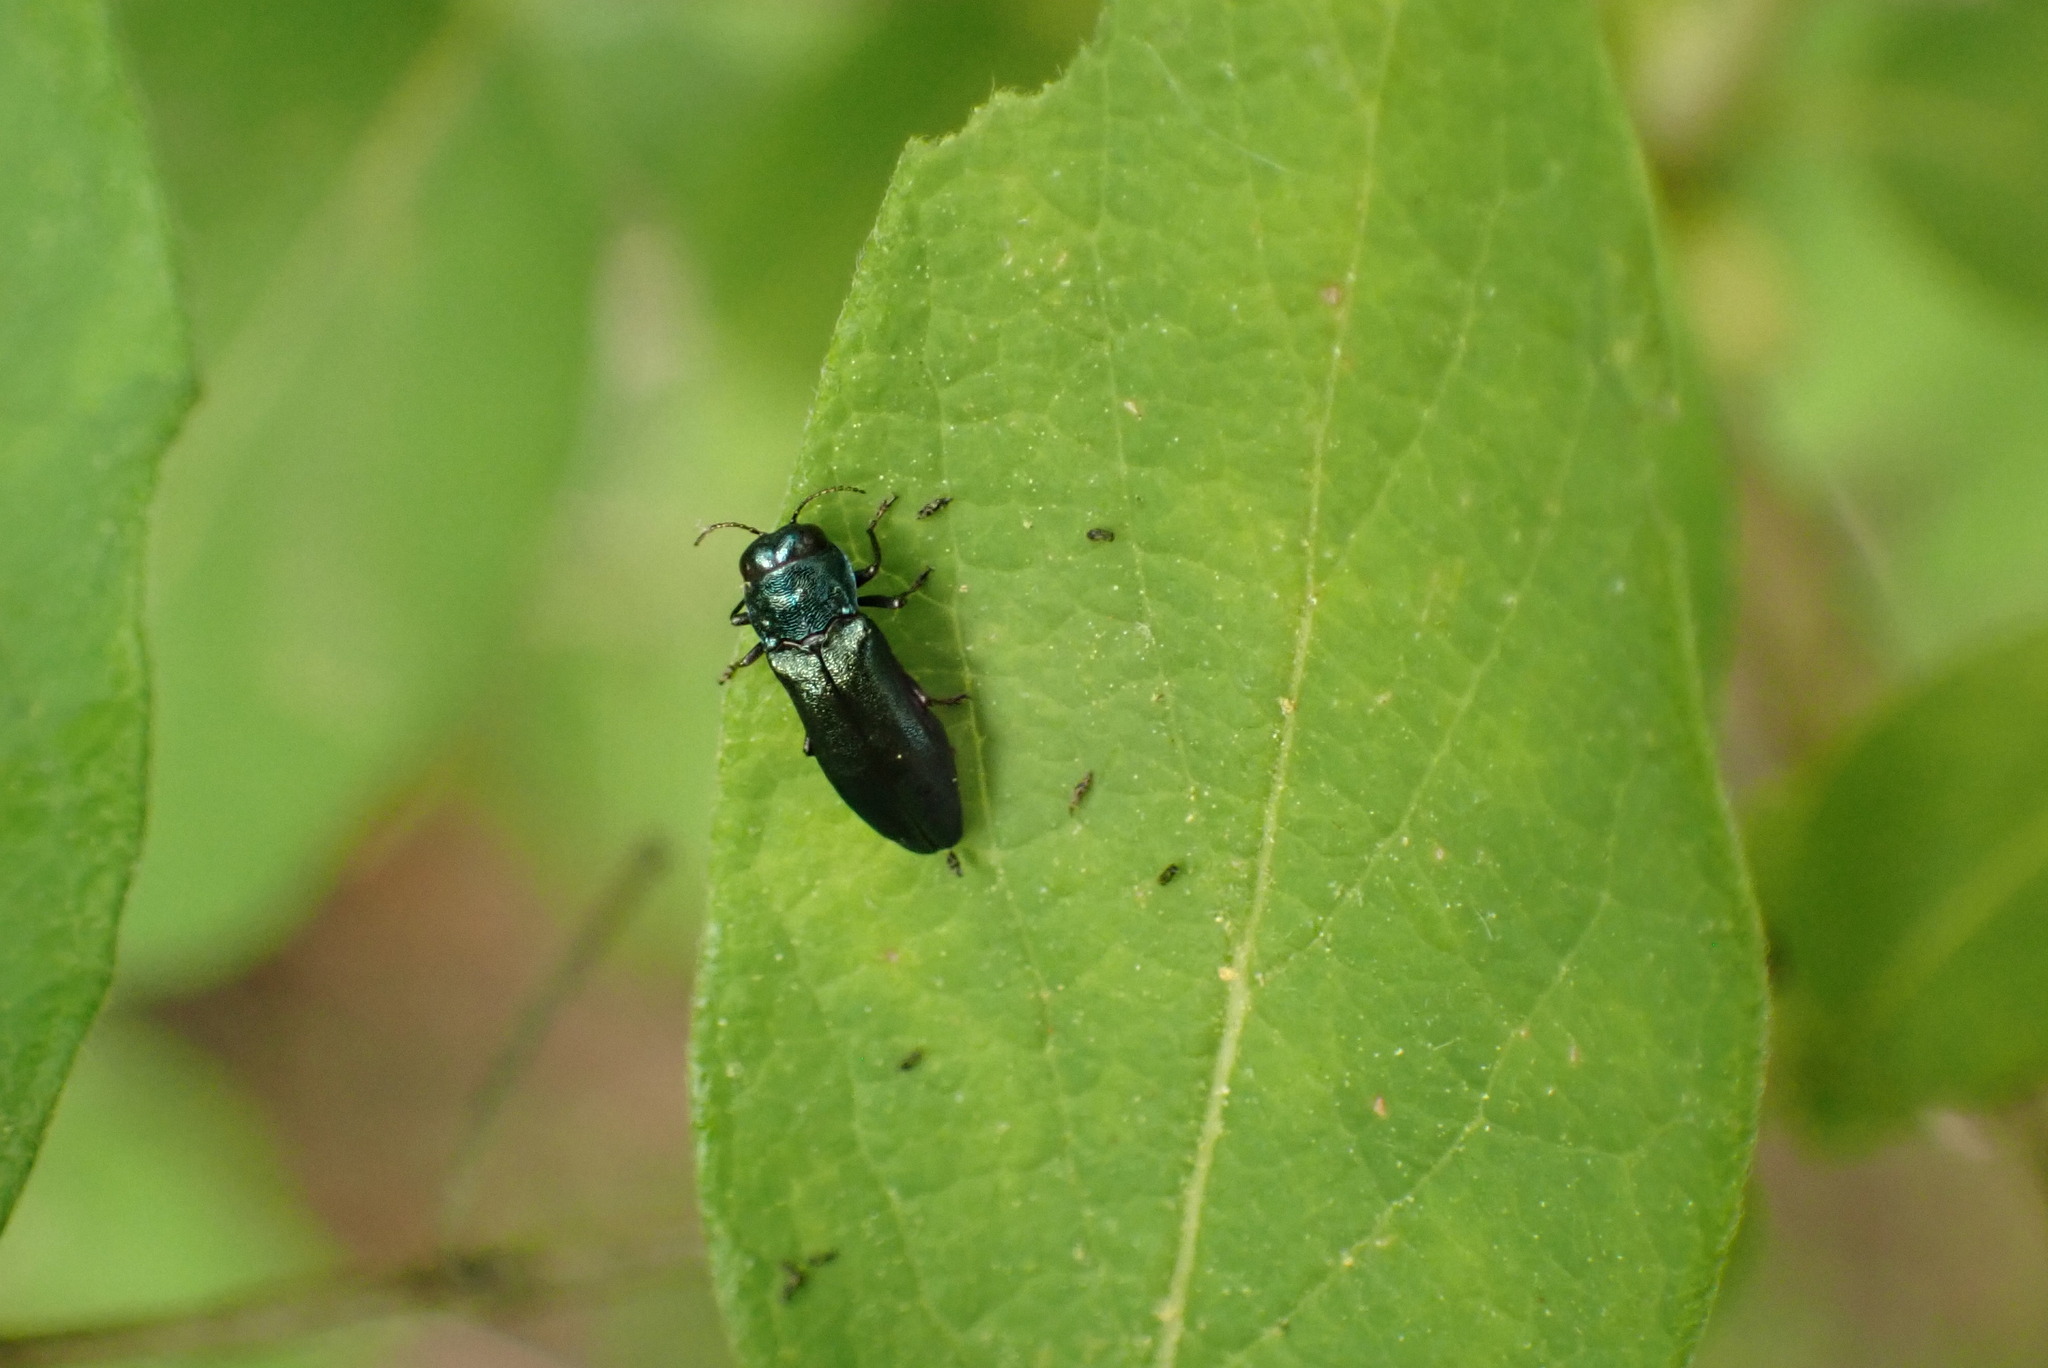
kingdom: Animalia
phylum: Arthropoda
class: Insecta
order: Coleoptera
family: Buprestidae
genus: Agrilus
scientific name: Agrilus cyanescens
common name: Bluish borer beetle
